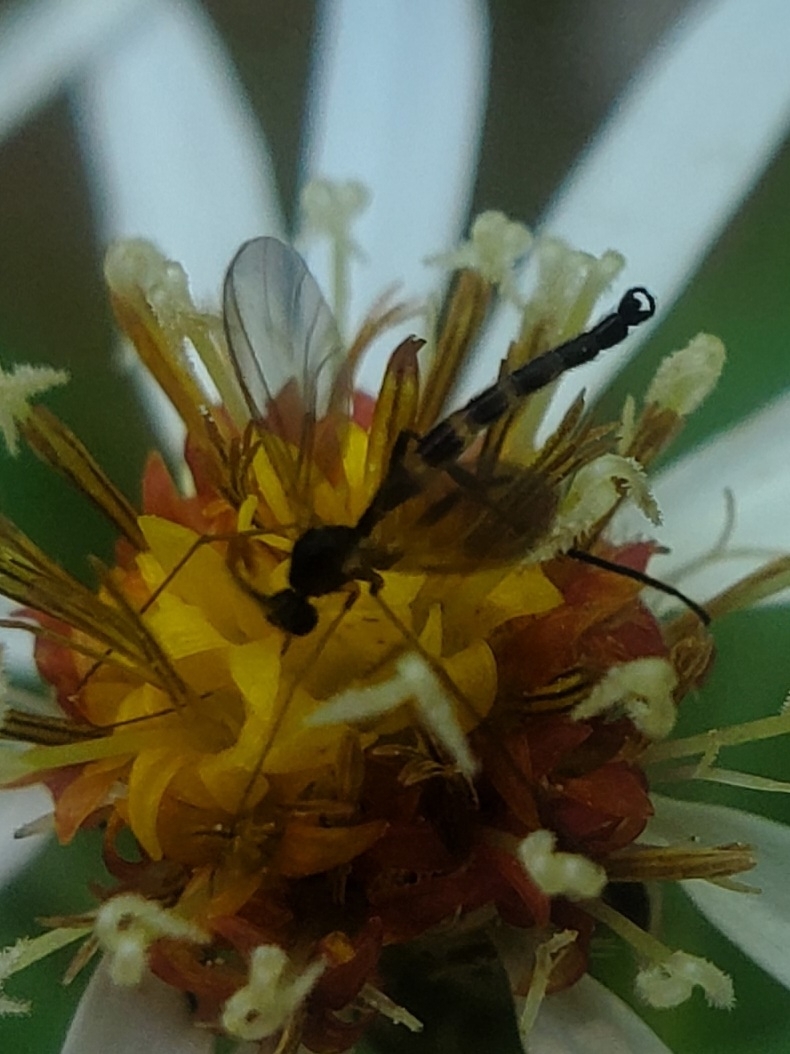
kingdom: Animalia
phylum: Arthropoda
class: Insecta
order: Diptera
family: Keroplatidae
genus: Lygistorrhina
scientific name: Lygistorrhina sanctaecatharinae
